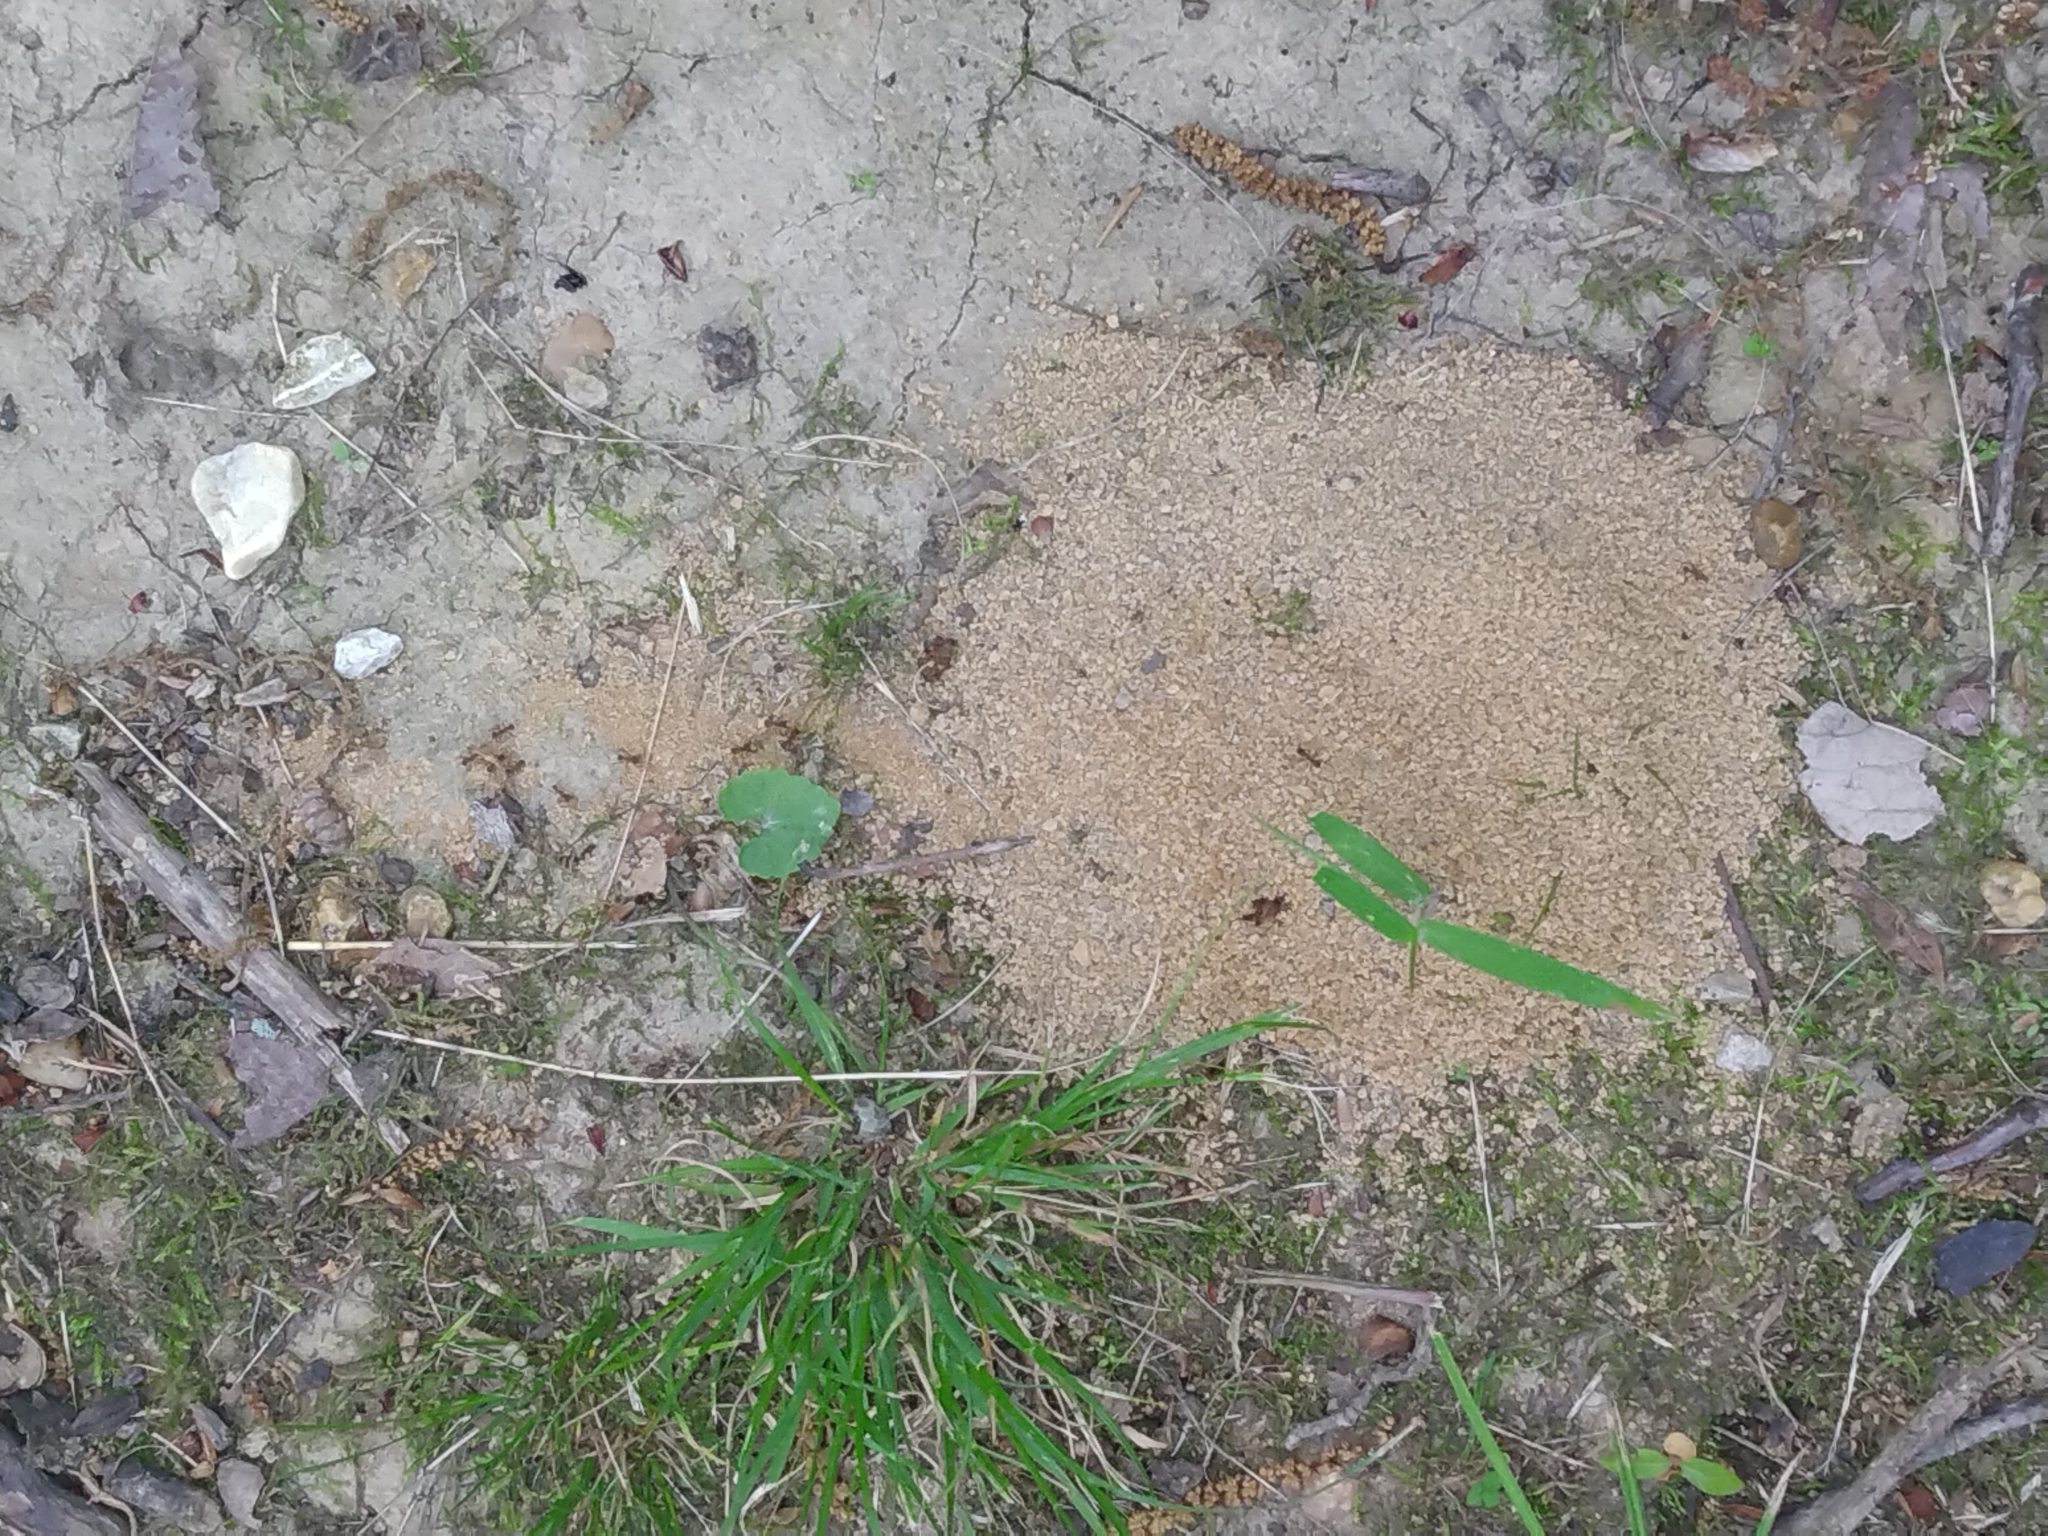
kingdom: Animalia
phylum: Arthropoda
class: Insecta
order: Hymenoptera
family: Formicidae
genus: Trachymyrmex
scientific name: Trachymyrmex septentrionalis
